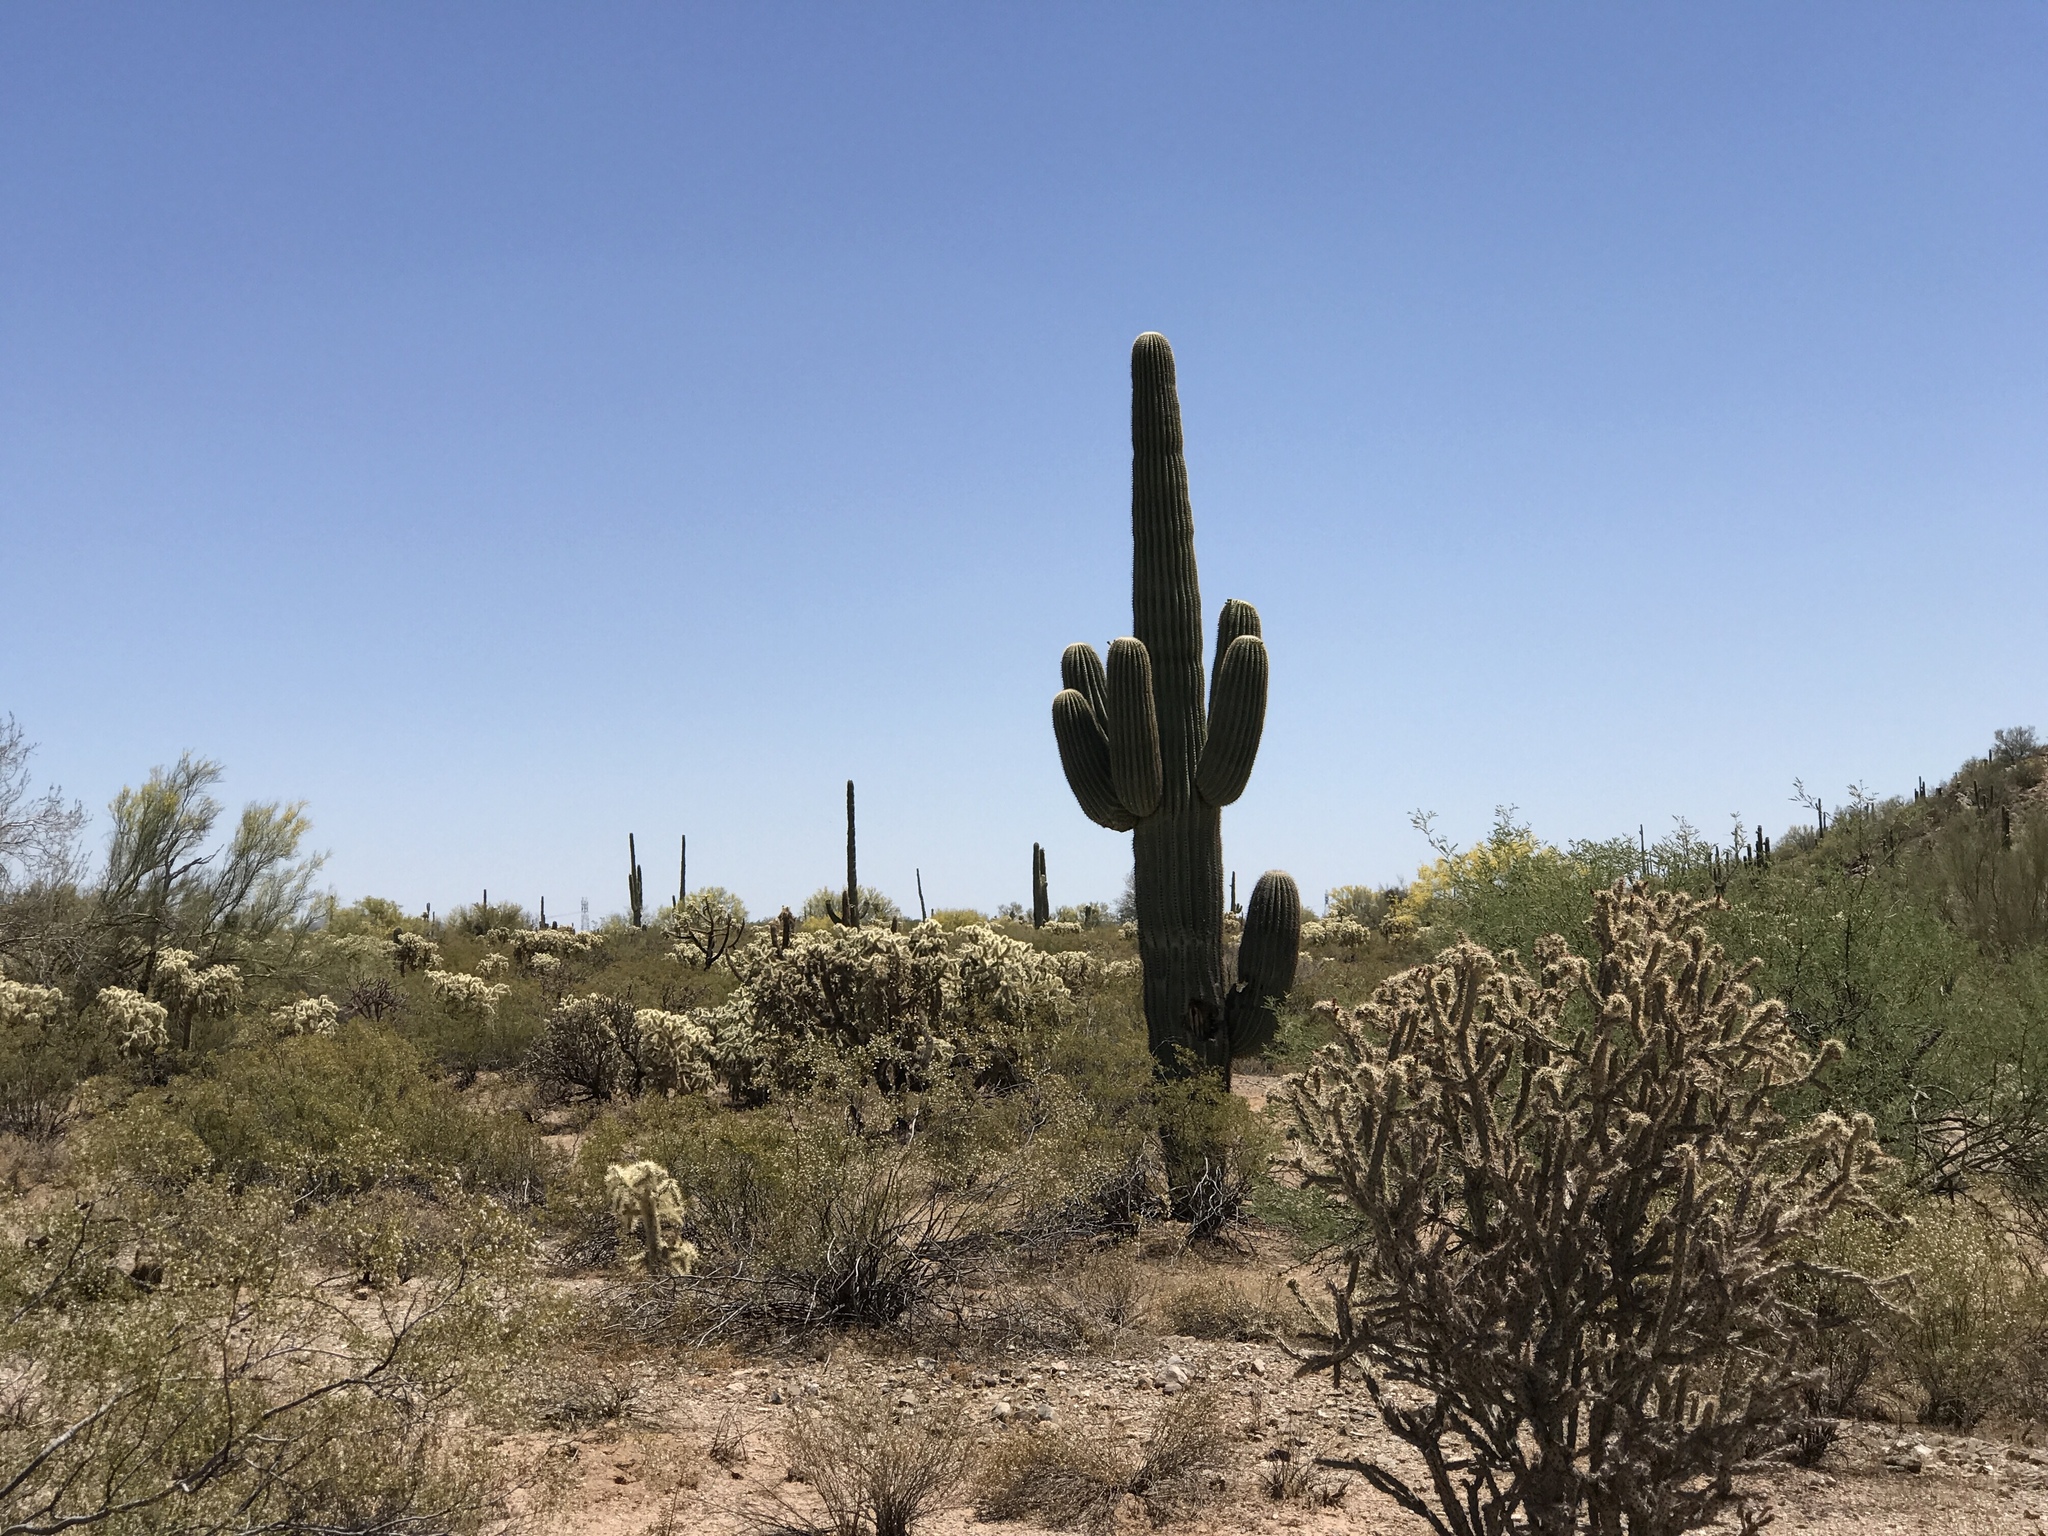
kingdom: Plantae
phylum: Tracheophyta
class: Magnoliopsida
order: Caryophyllales
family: Cactaceae
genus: Carnegiea
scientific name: Carnegiea gigantea
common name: Saguaro
